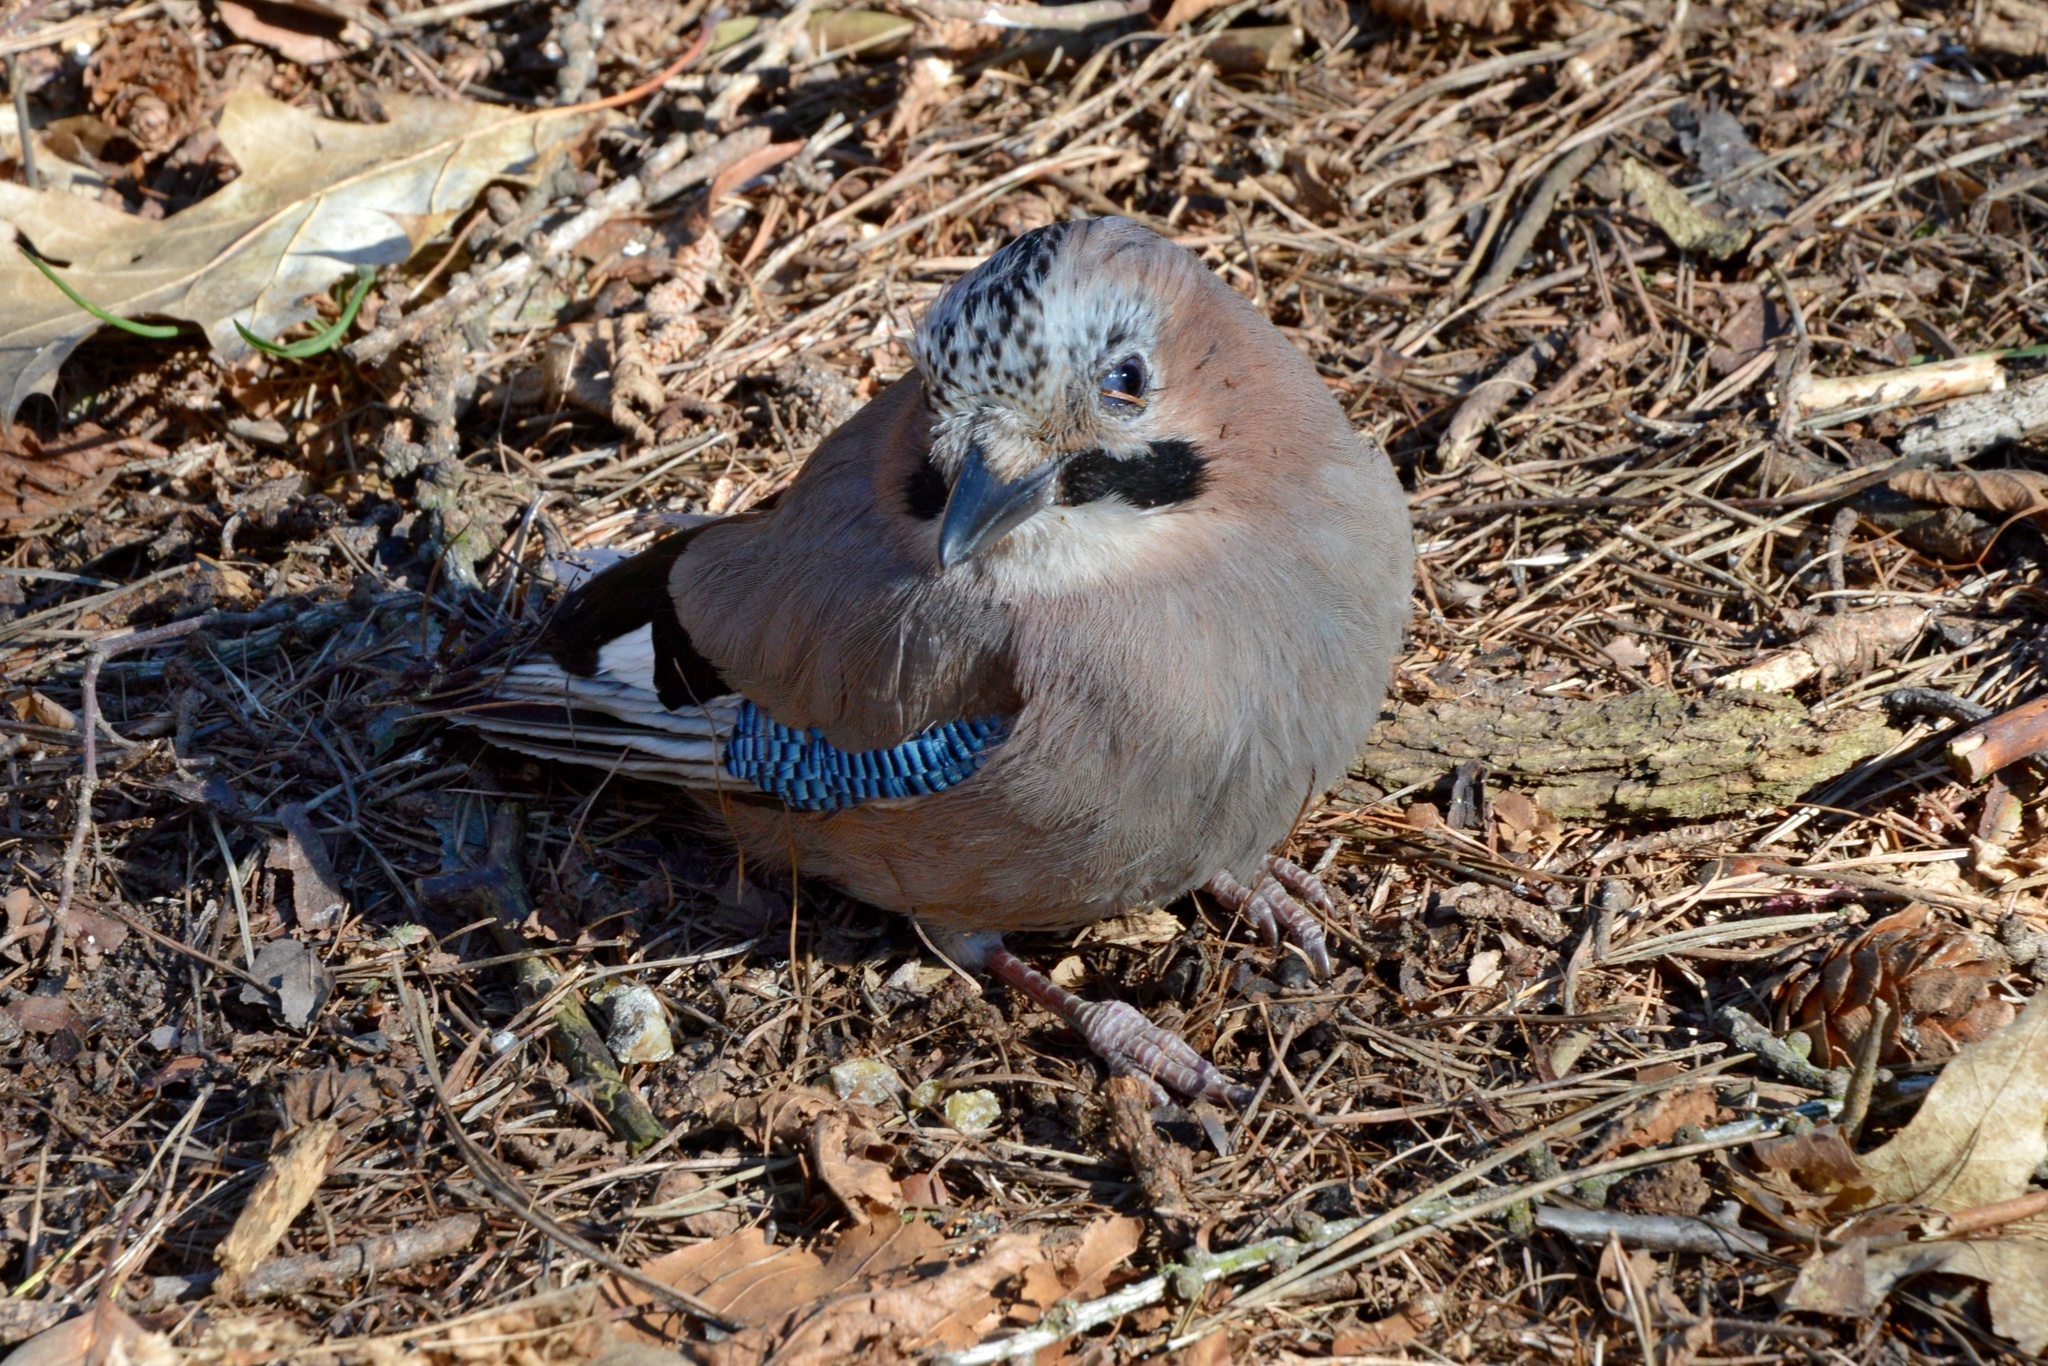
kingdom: Animalia
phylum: Chordata
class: Aves
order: Passeriformes
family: Corvidae
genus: Garrulus
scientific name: Garrulus glandarius
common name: Eurasian jay
